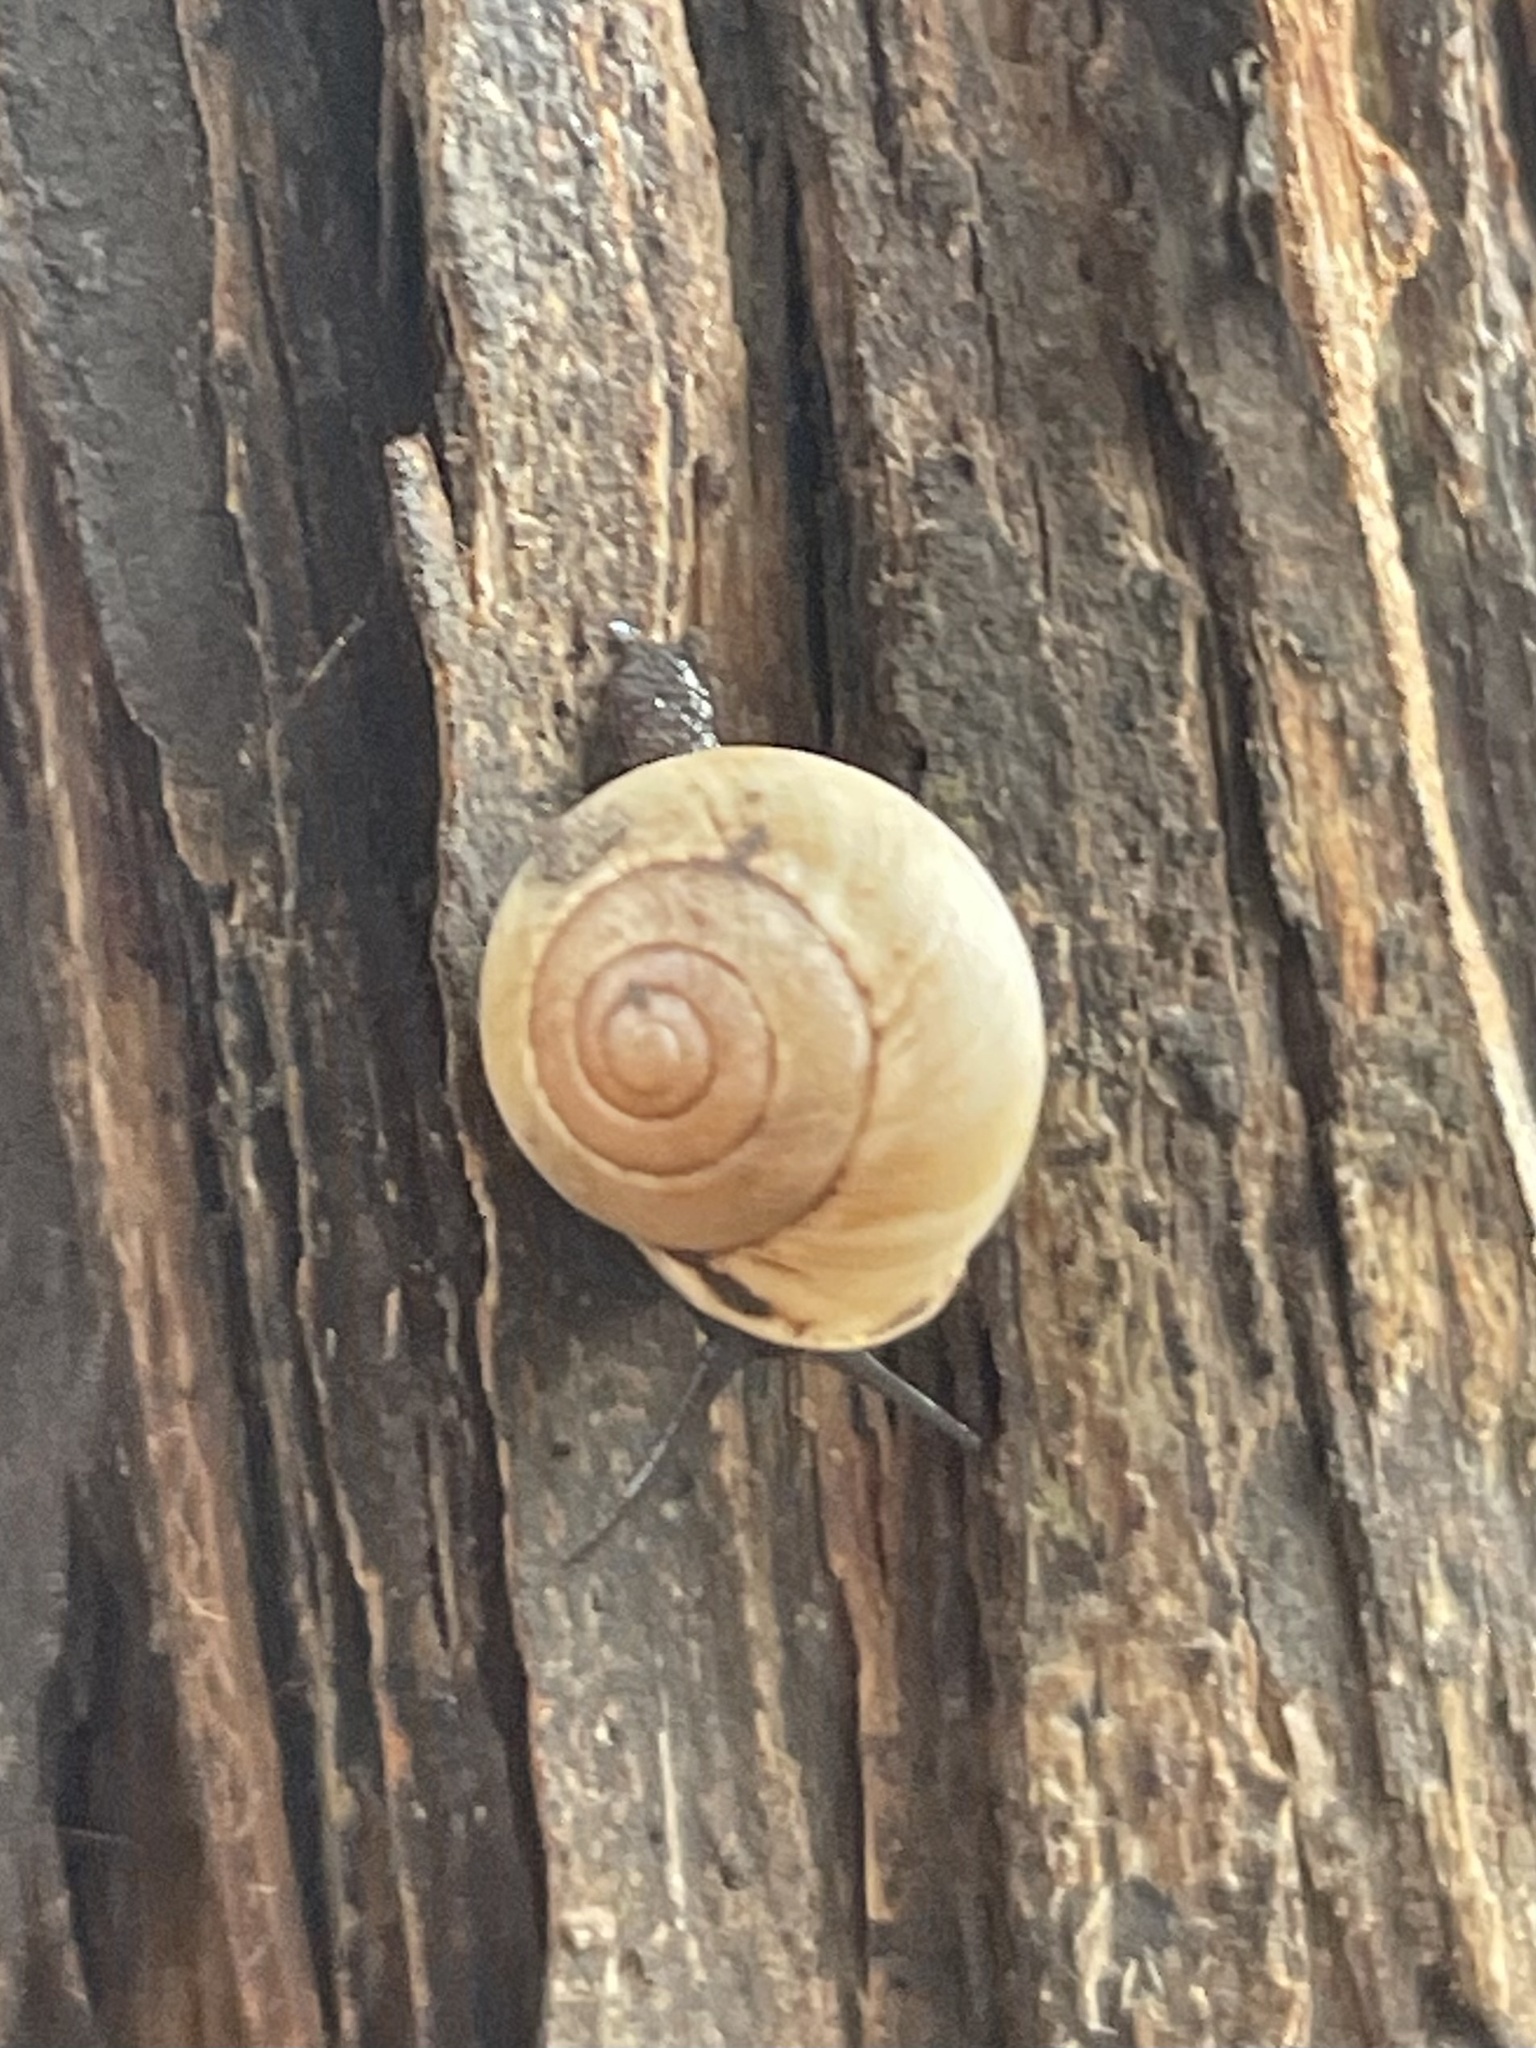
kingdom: Animalia
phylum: Mollusca
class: Gastropoda
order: Cycloneritida
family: Helicinidae
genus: Helicina
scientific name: Helicina orbiculata
